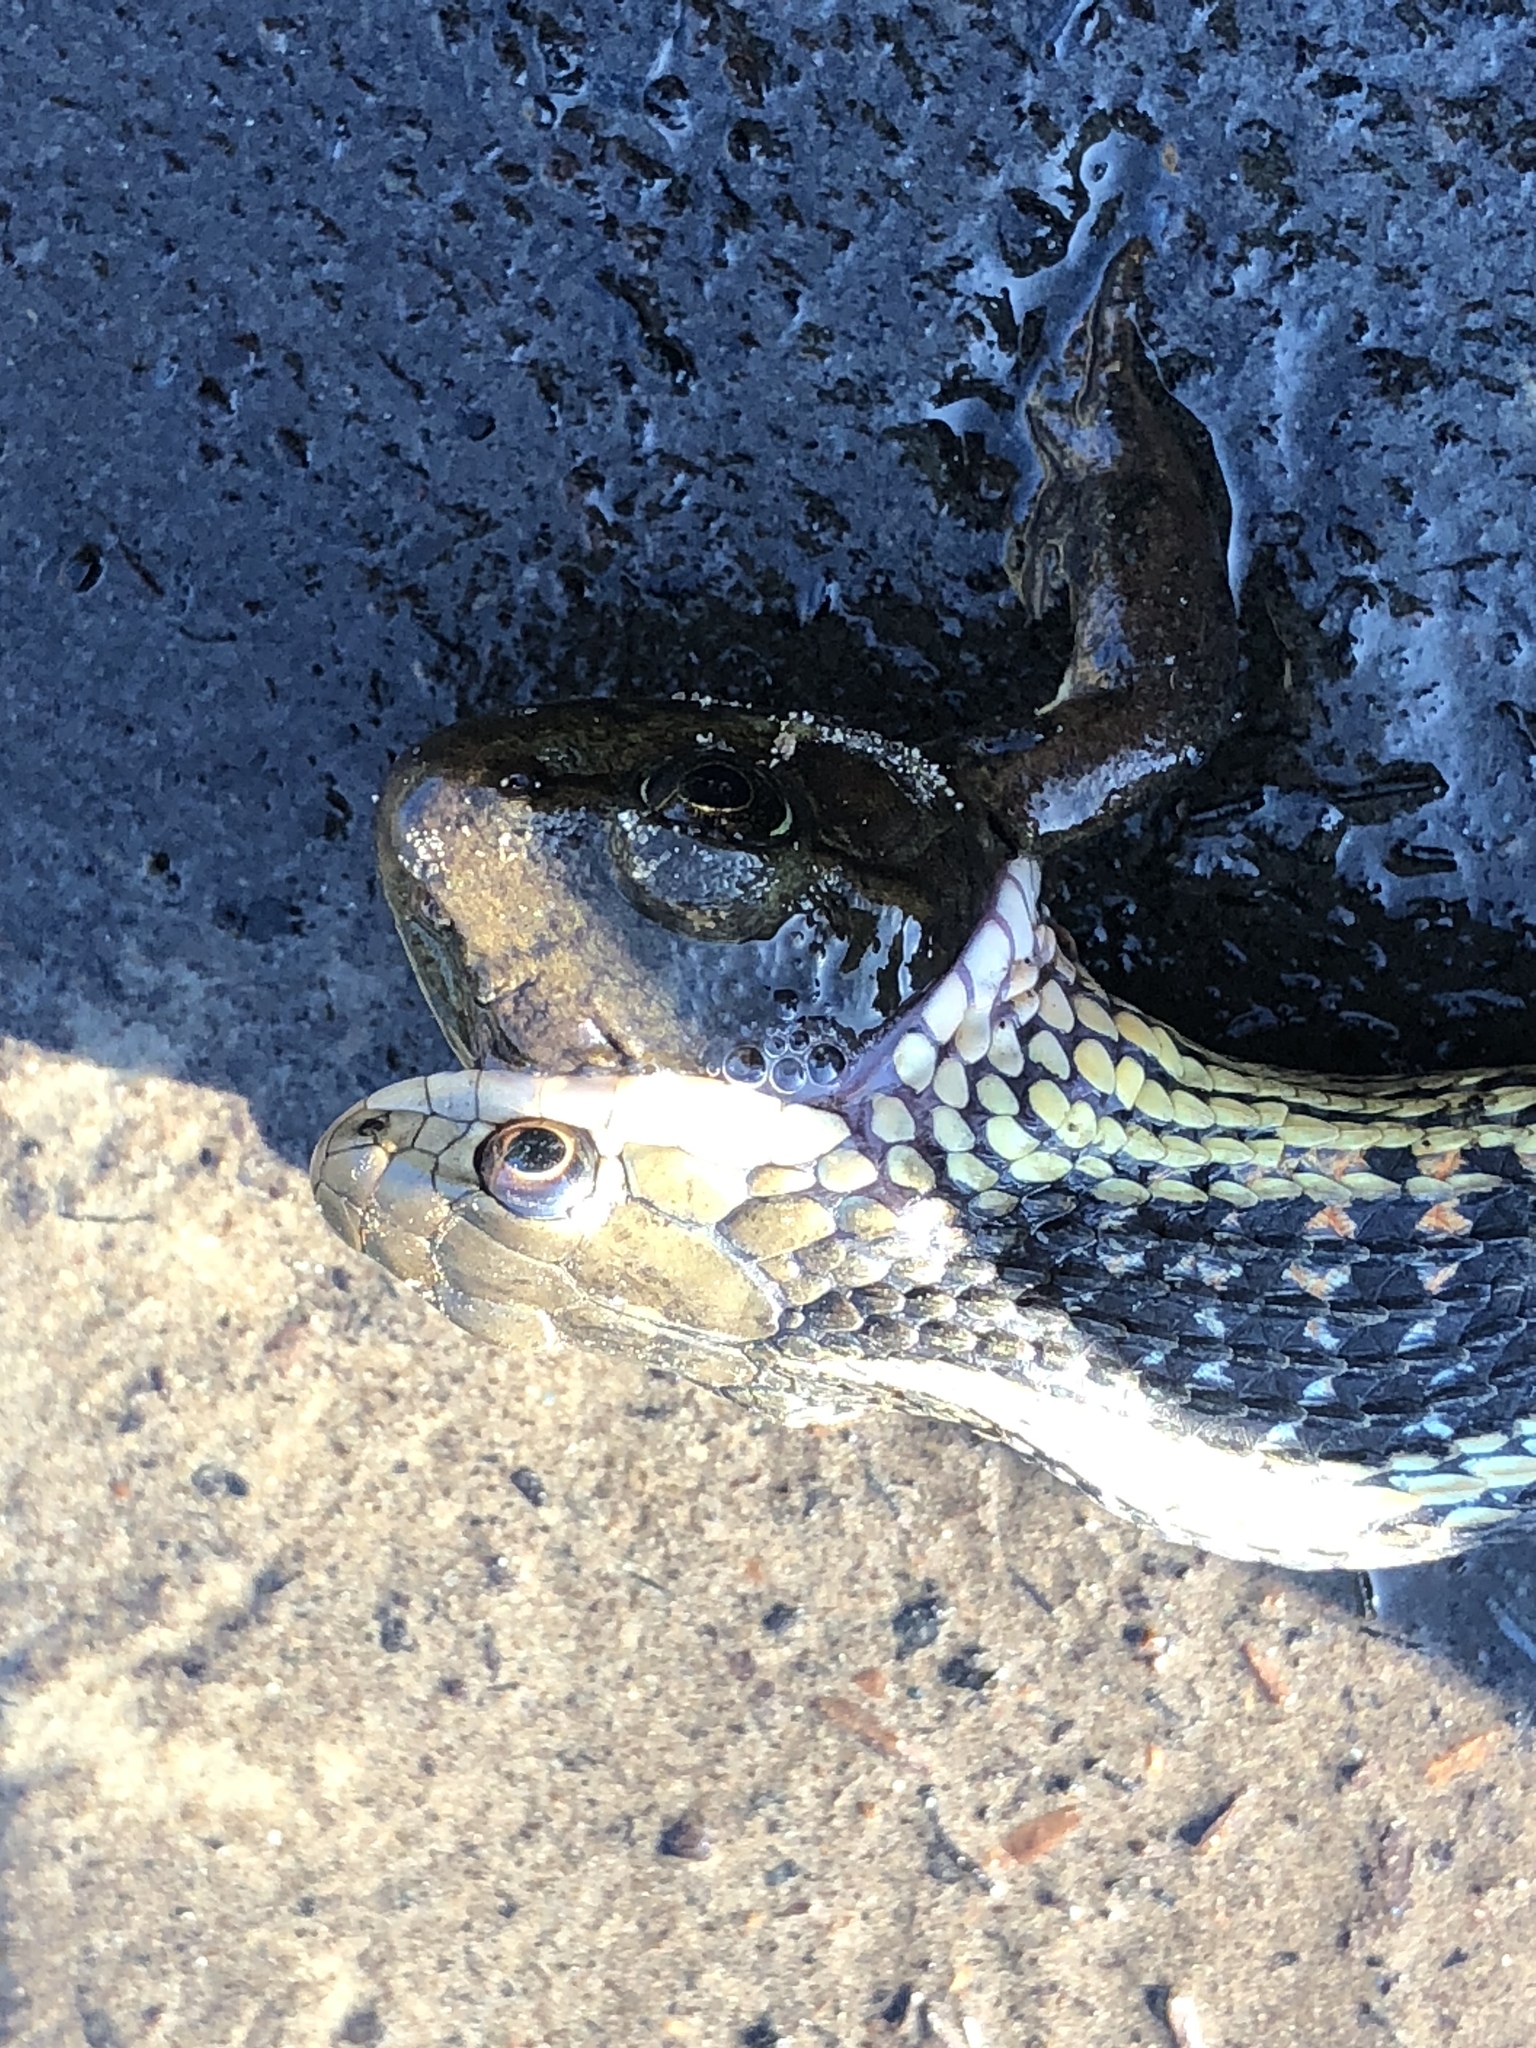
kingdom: Animalia
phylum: Chordata
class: Squamata
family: Colubridae
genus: Thamnophis
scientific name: Thamnophis sirtalis
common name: Common garter snake
